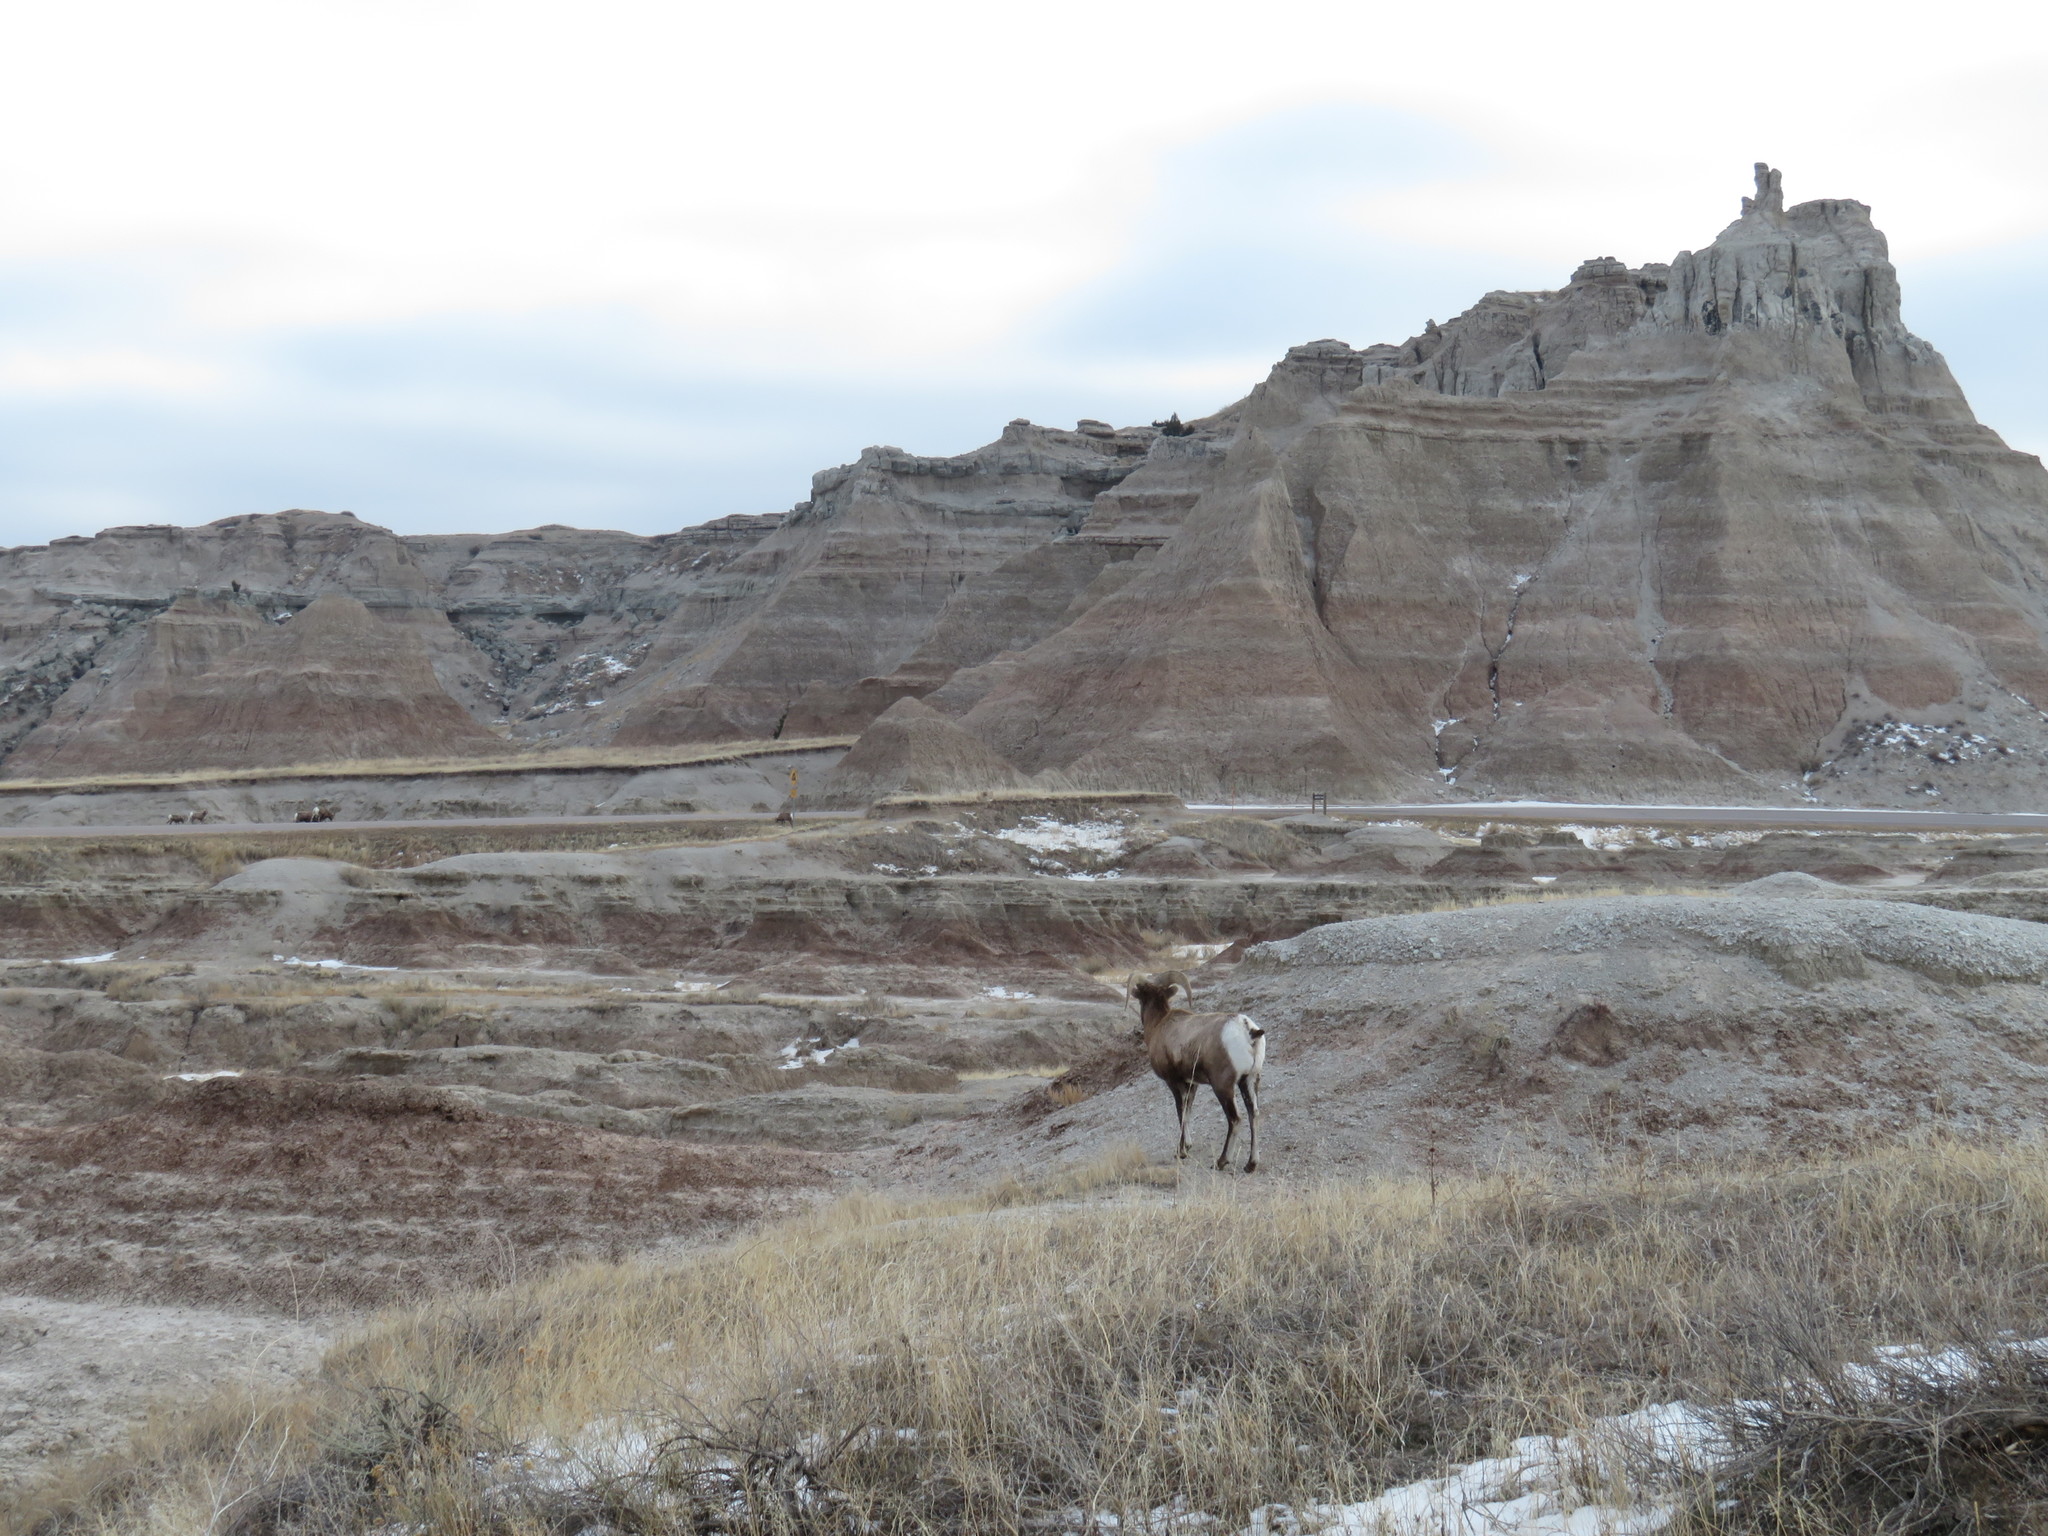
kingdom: Animalia
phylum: Chordata
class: Mammalia
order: Artiodactyla
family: Bovidae
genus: Ovis
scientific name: Ovis canadensis
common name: Bighorn sheep
